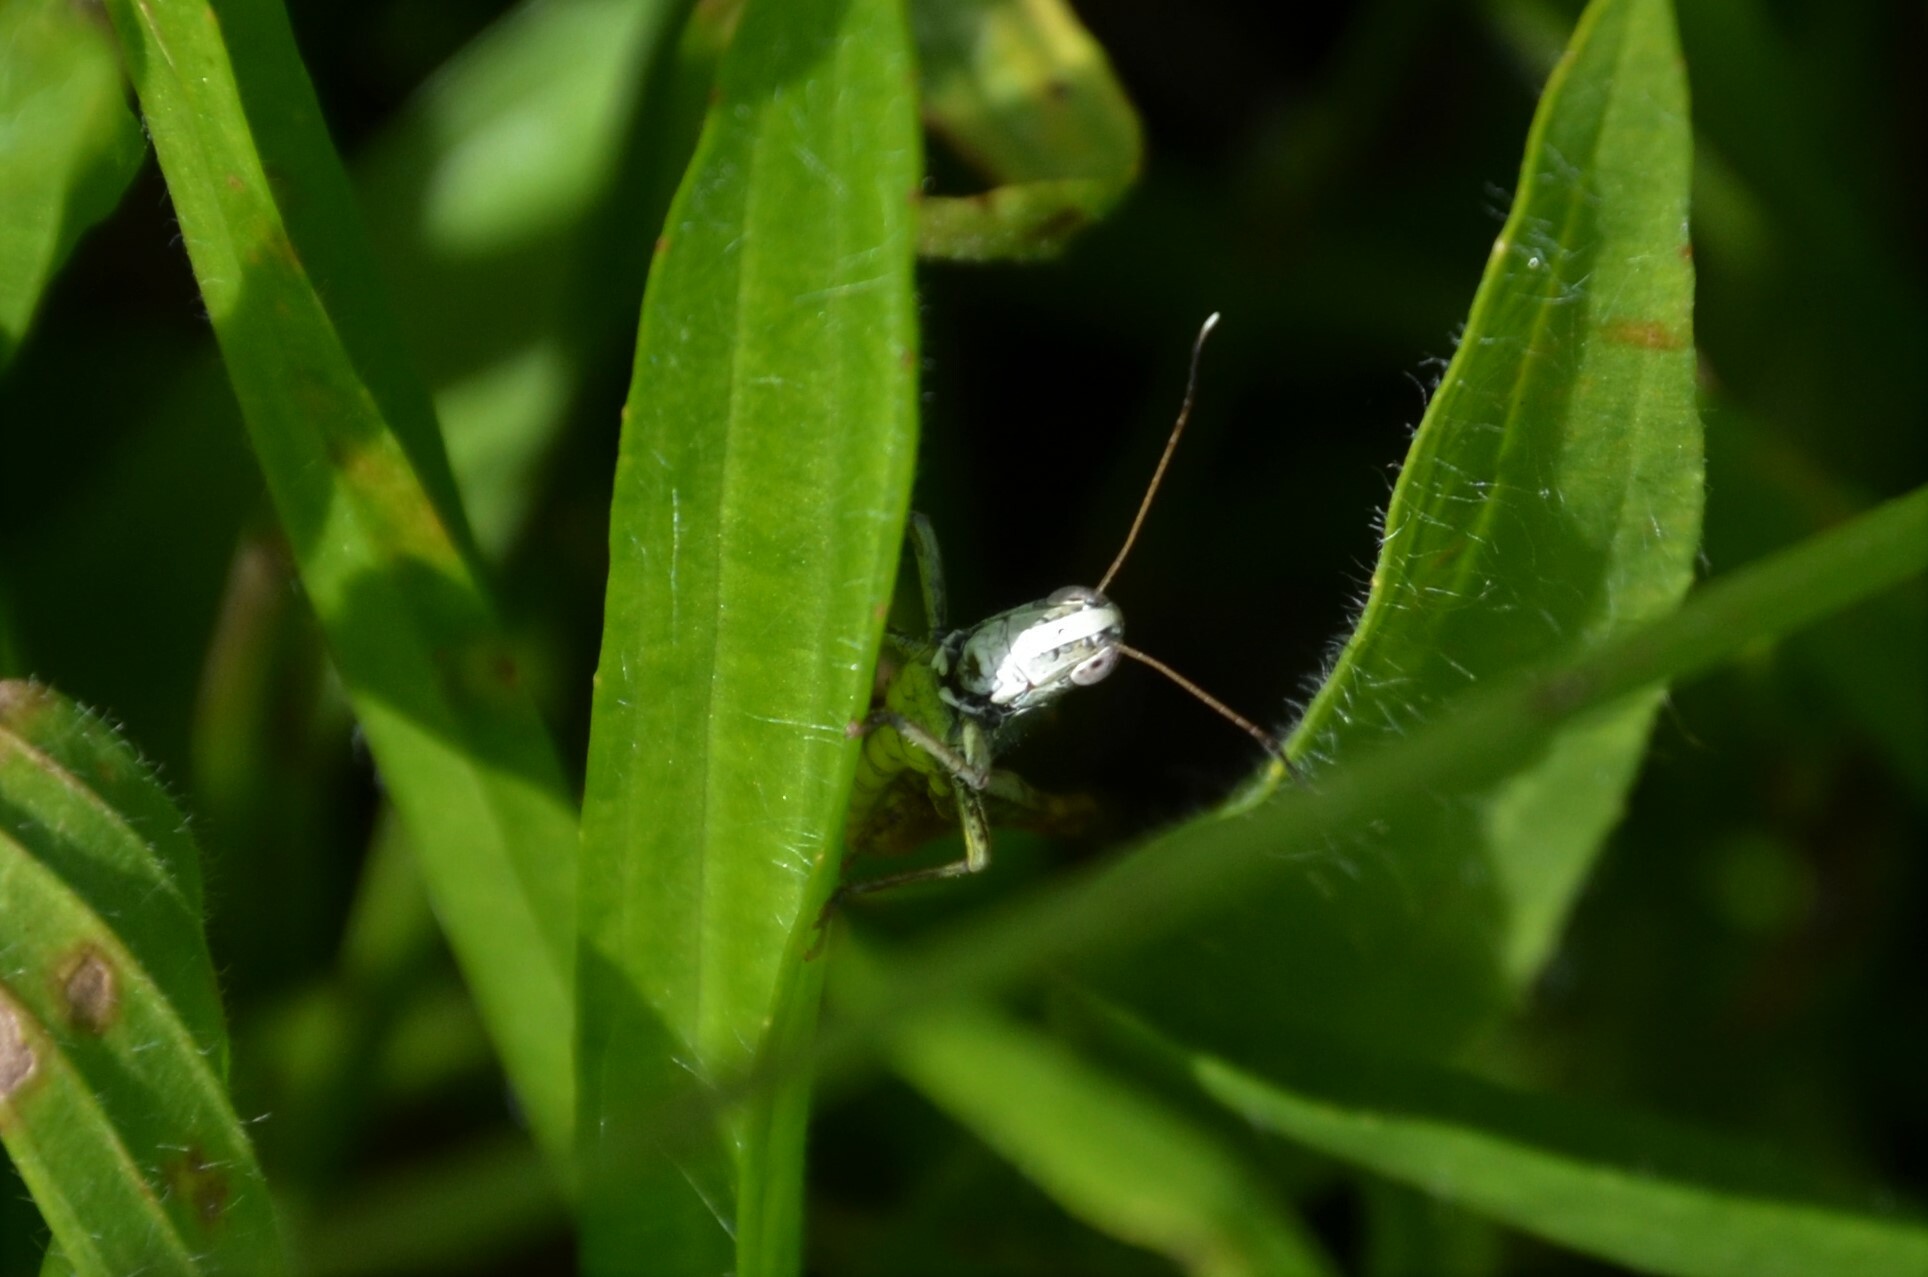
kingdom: Animalia
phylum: Arthropoda
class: Insecta
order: Orthoptera
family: Acrididae
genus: Gomphocerippus
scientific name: Gomphocerippus rufus
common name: Rufous grasshopper
